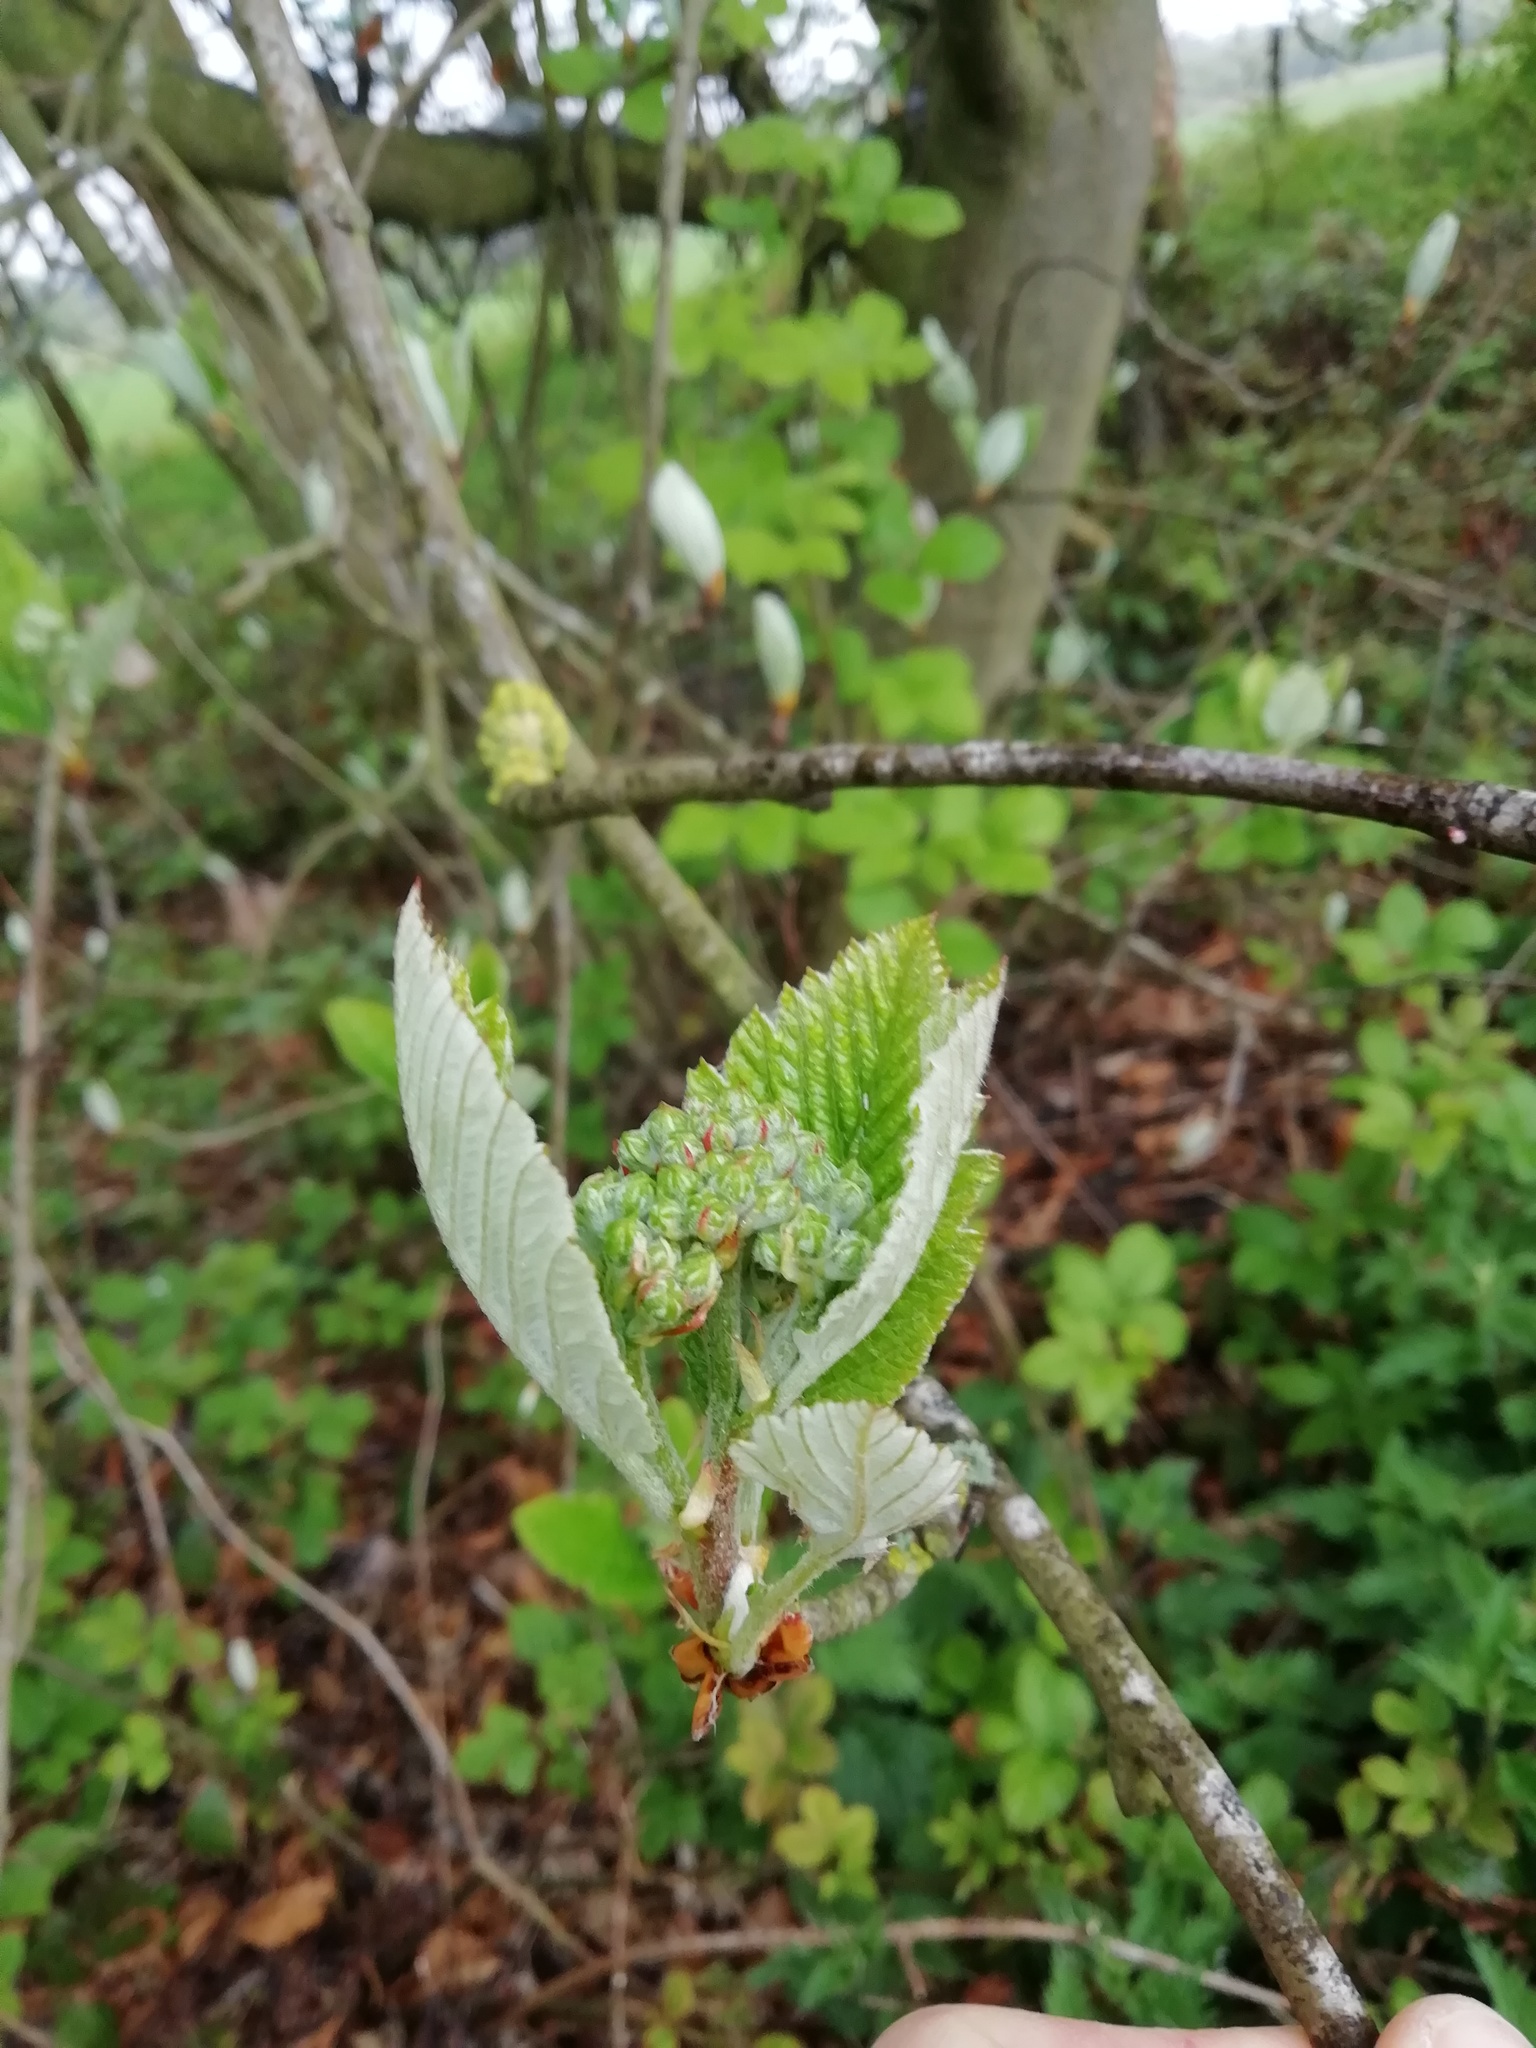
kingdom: Plantae
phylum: Tracheophyta
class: Magnoliopsida
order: Rosales
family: Rosaceae
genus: Aria
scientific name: Aria edulis
